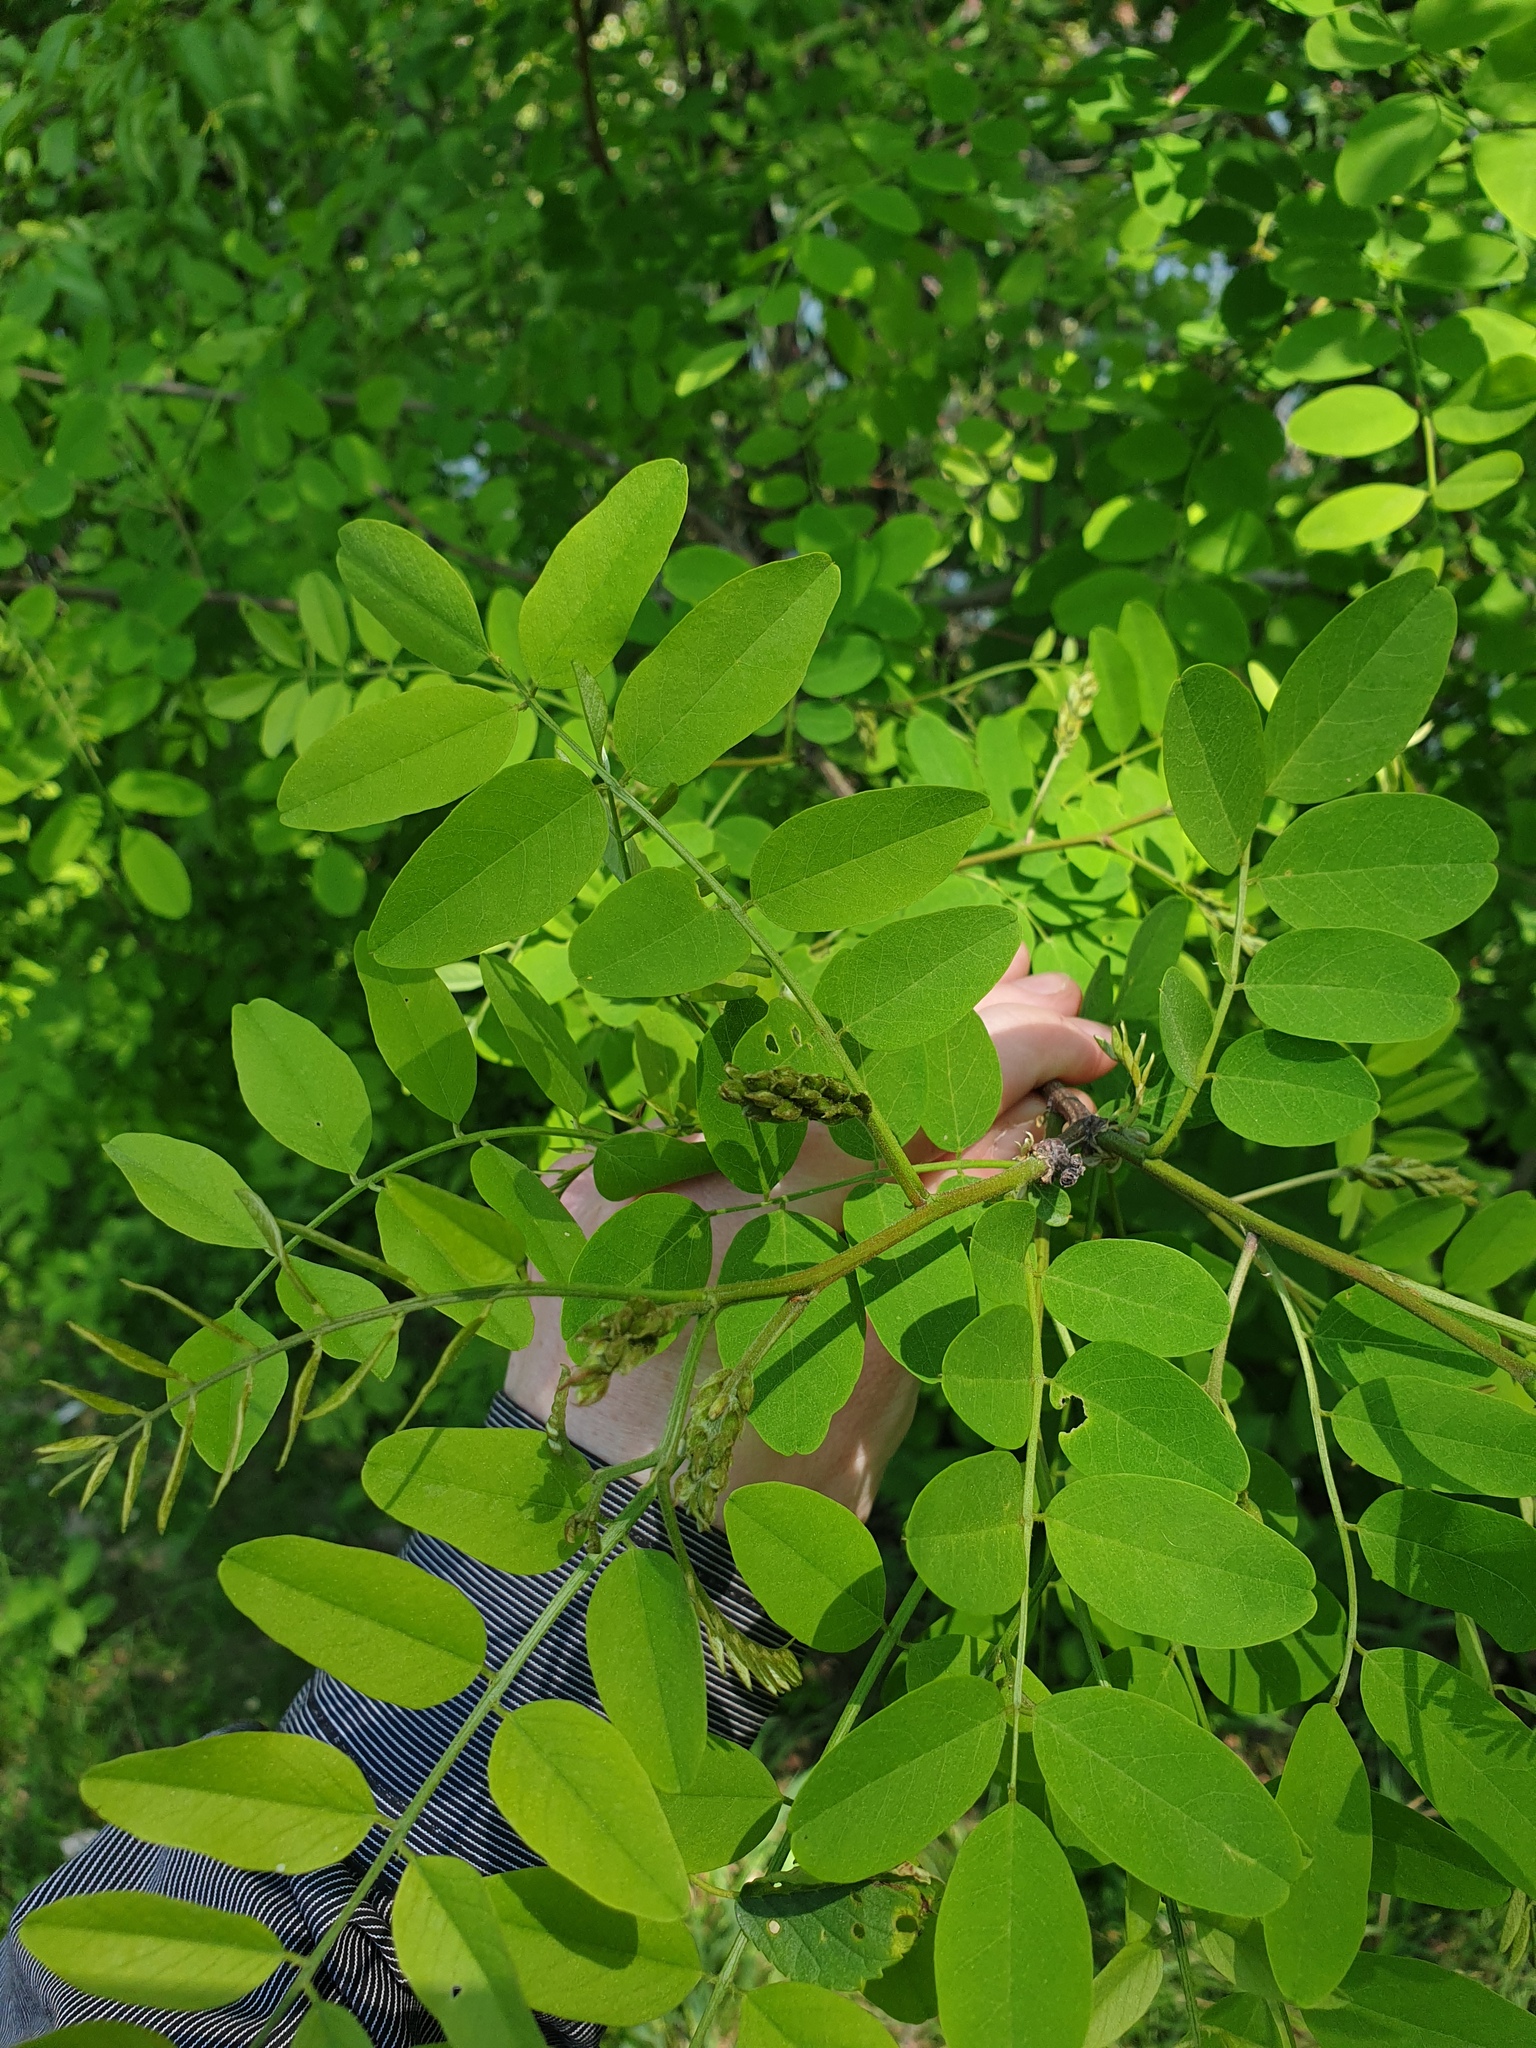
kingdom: Plantae
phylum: Tracheophyta
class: Magnoliopsida
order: Fabales
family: Fabaceae
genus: Robinia
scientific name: Robinia pseudoacacia
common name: Black locust
